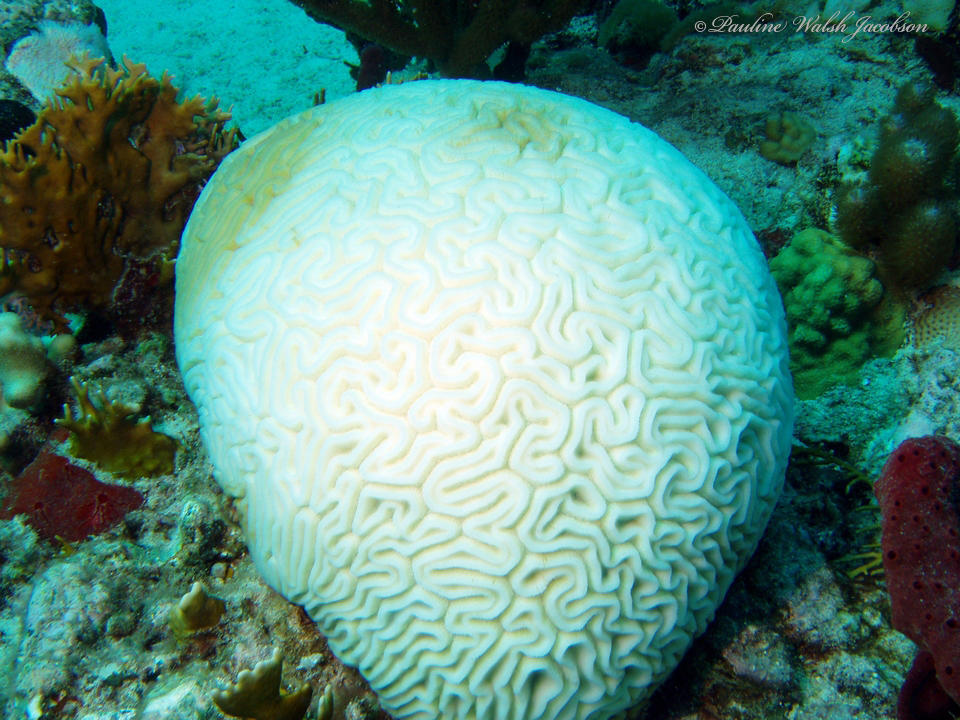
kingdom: Animalia
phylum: Cnidaria
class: Anthozoa
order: Scleractinia
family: Faviidae
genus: Diploria
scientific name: Diploria labyrinthiformis
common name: Grooved brain coral
